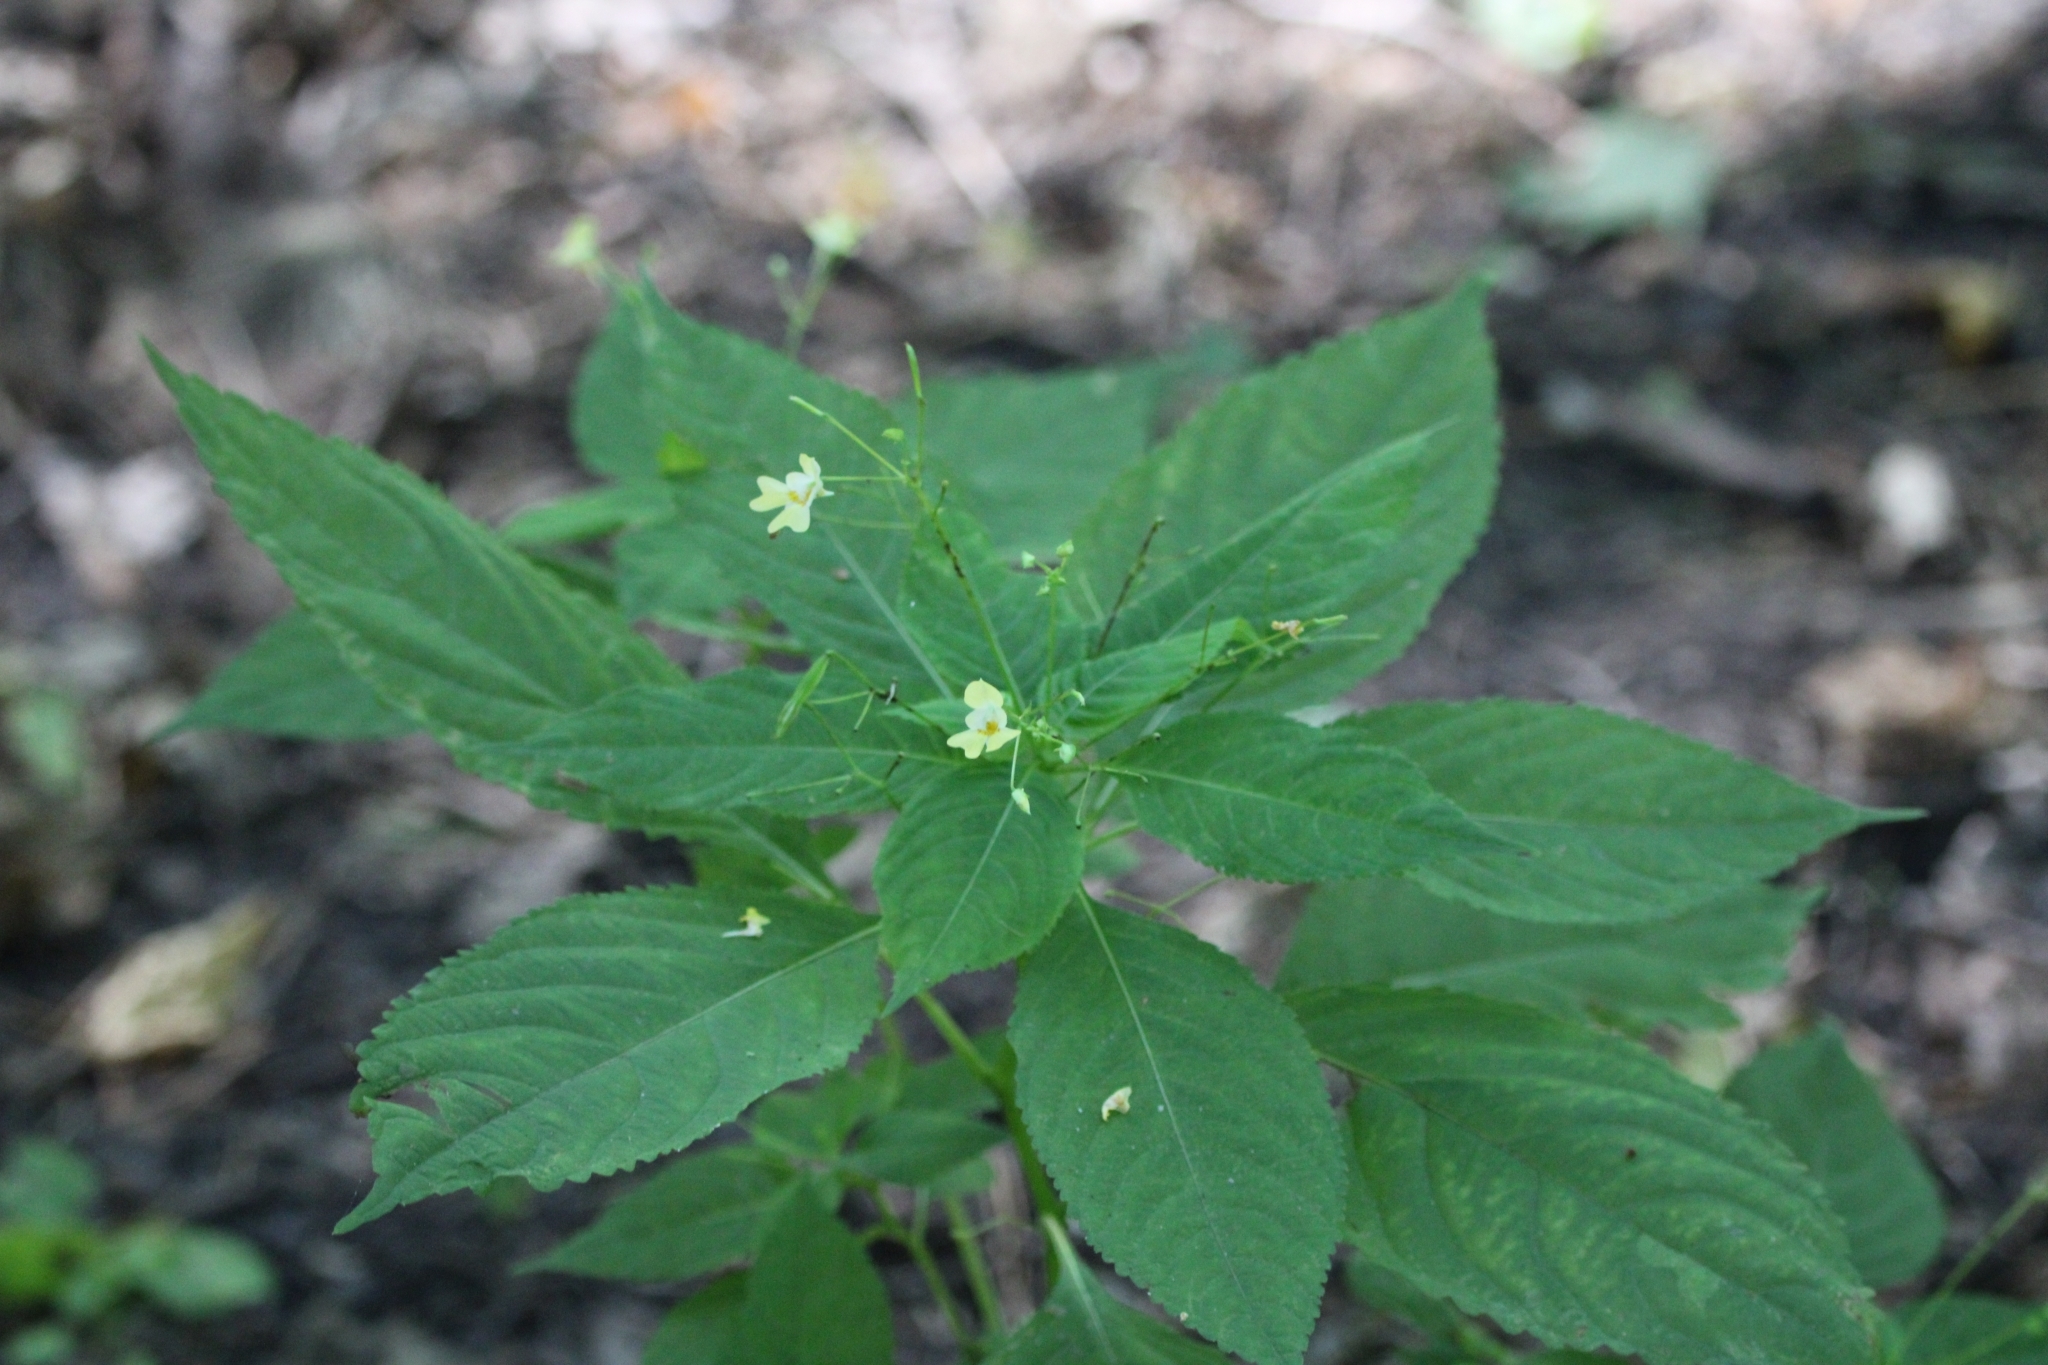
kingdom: Plantae
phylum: Tracheophyta
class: Magnoliopsida
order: Ericales
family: Balsaminaceae
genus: Impatiens
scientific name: Impatiens parviflora
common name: Small balsam
